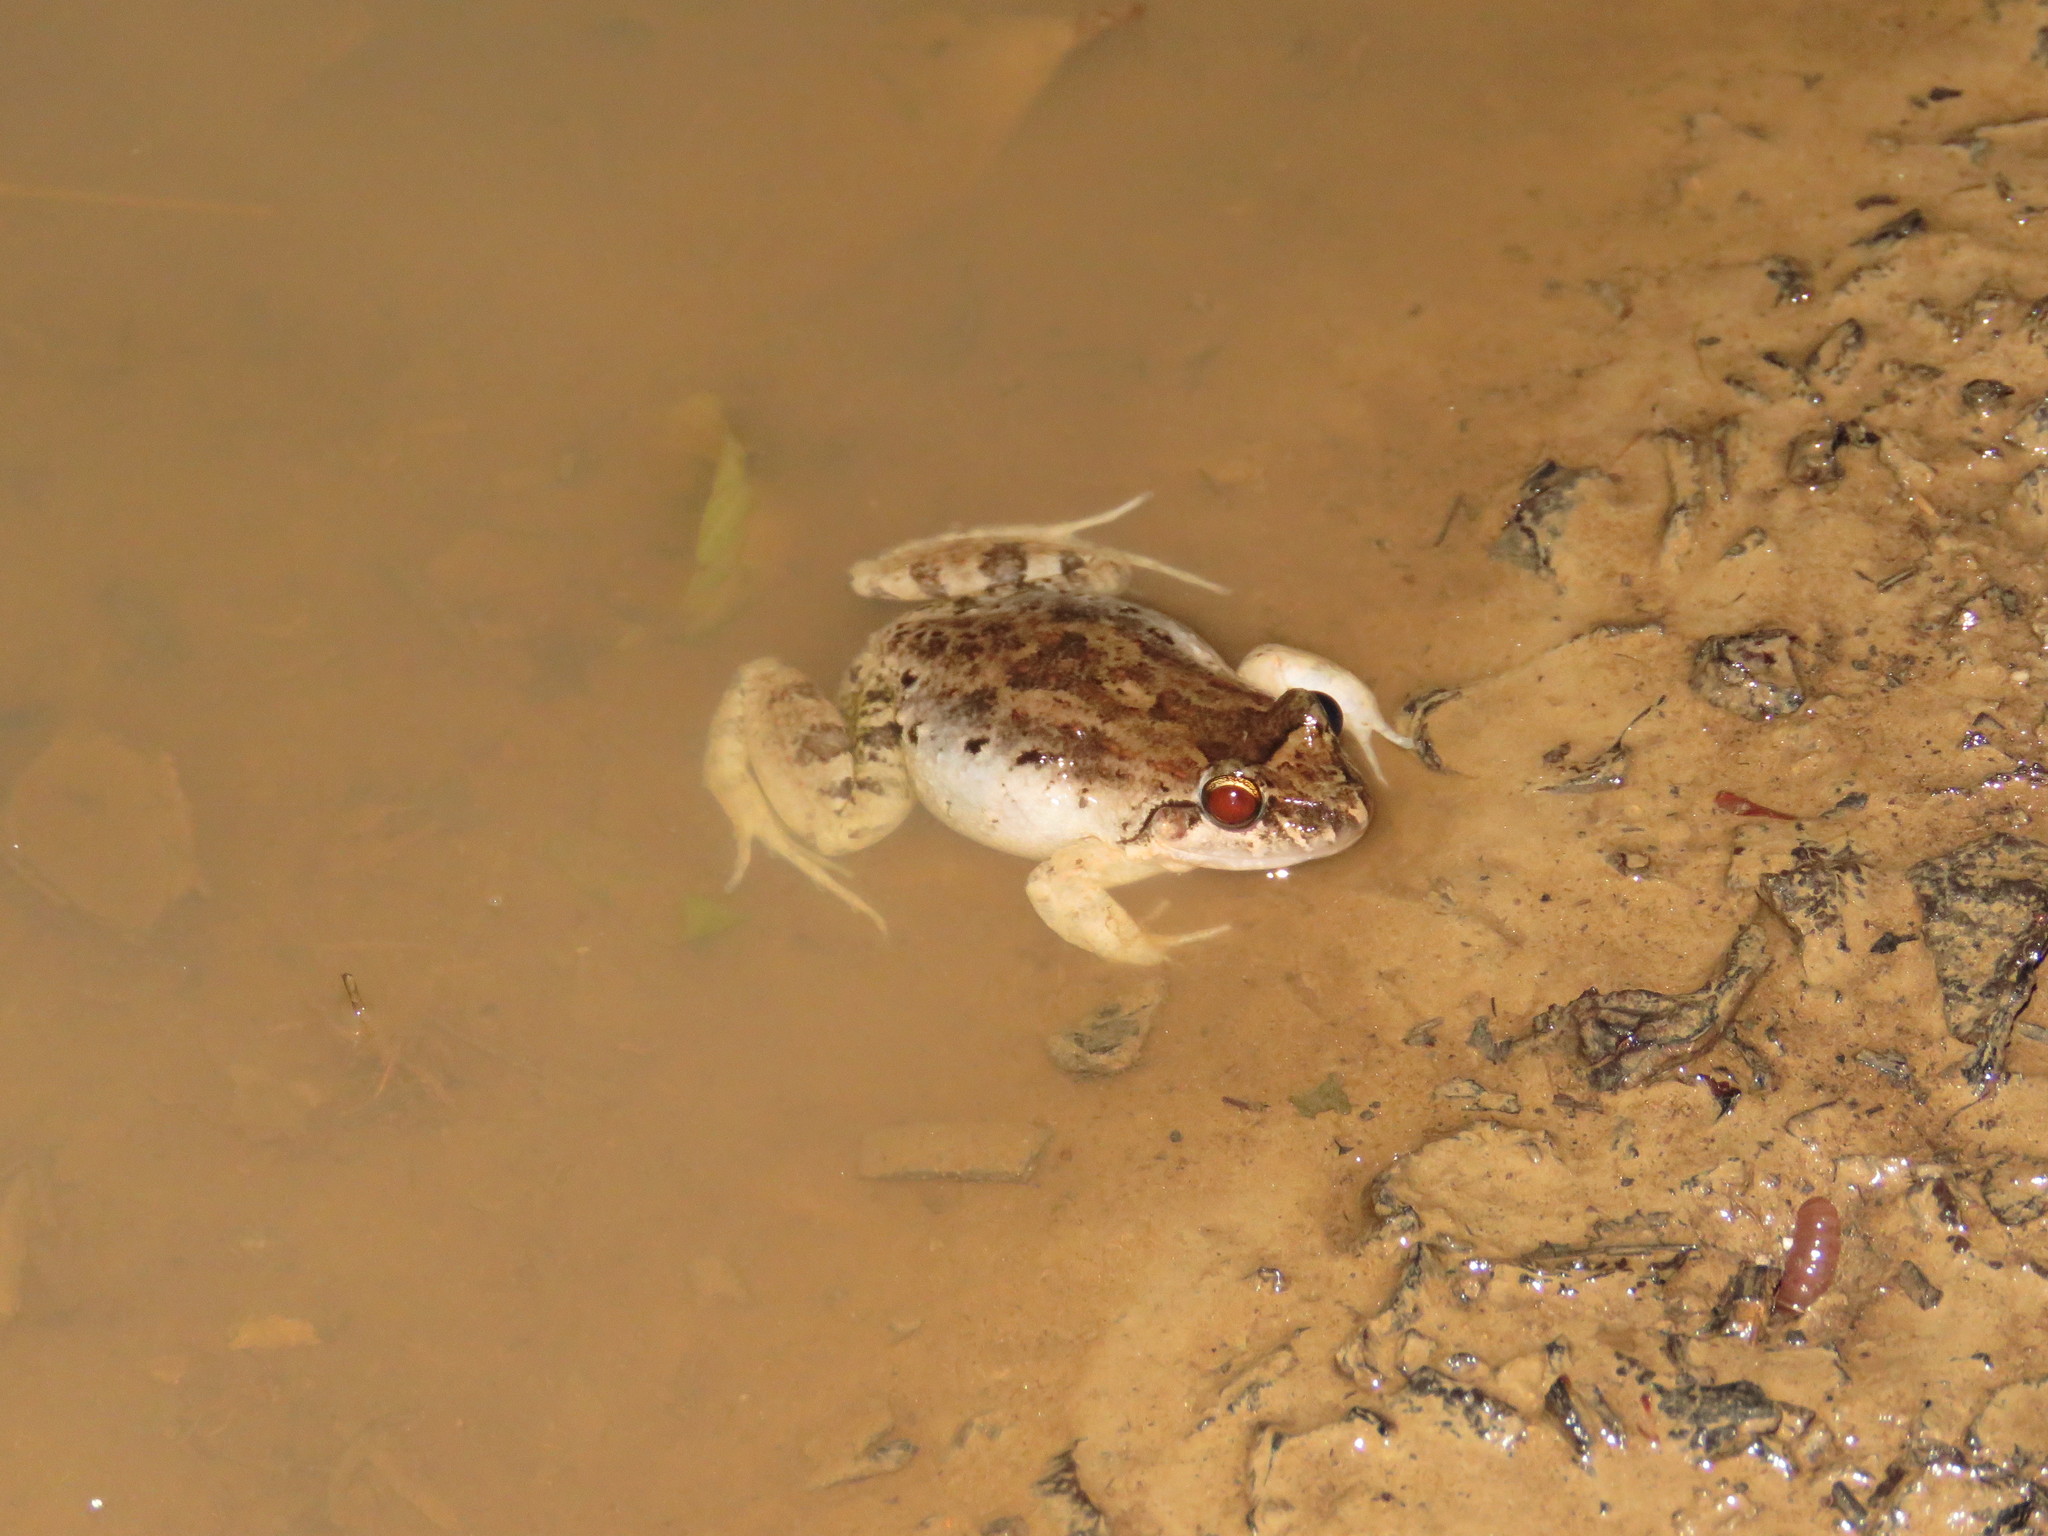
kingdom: Animalia
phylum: Chordata
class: Amphibia
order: Anura
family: Leptodactylidae
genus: Leptodactylus
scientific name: Leptodactylus petersii
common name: Peters' thin-toed frog
